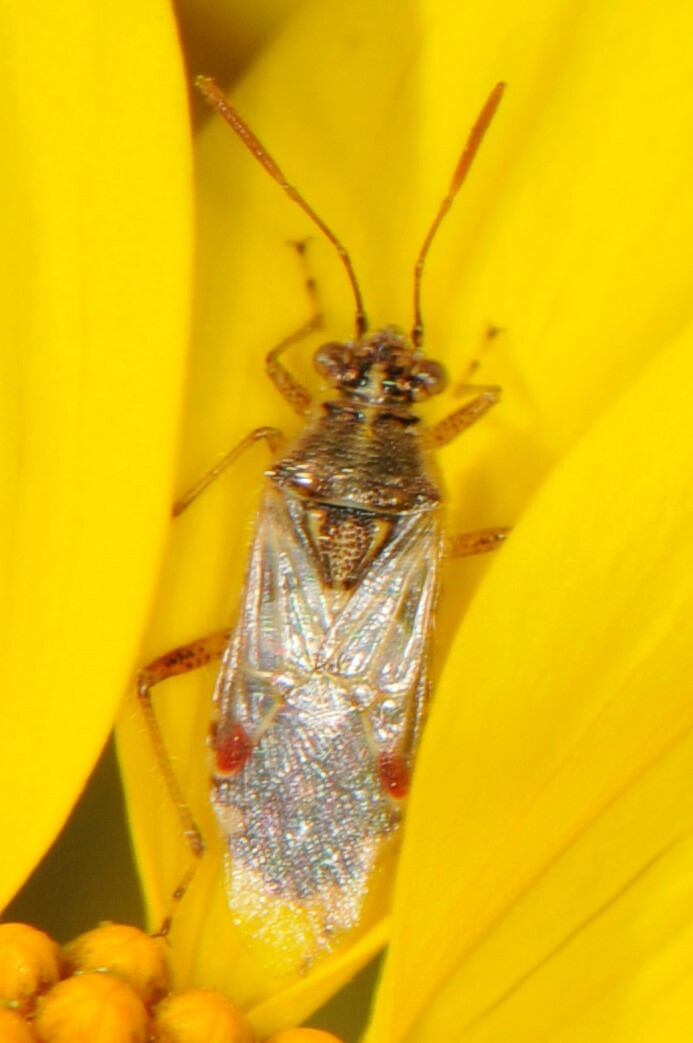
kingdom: Animalia
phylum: Arthropoda
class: Insecta
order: Hemiptera
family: Rhopalidae
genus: Liorhyssus
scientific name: Liorhyssus hyalinus
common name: Scentless plant bug
